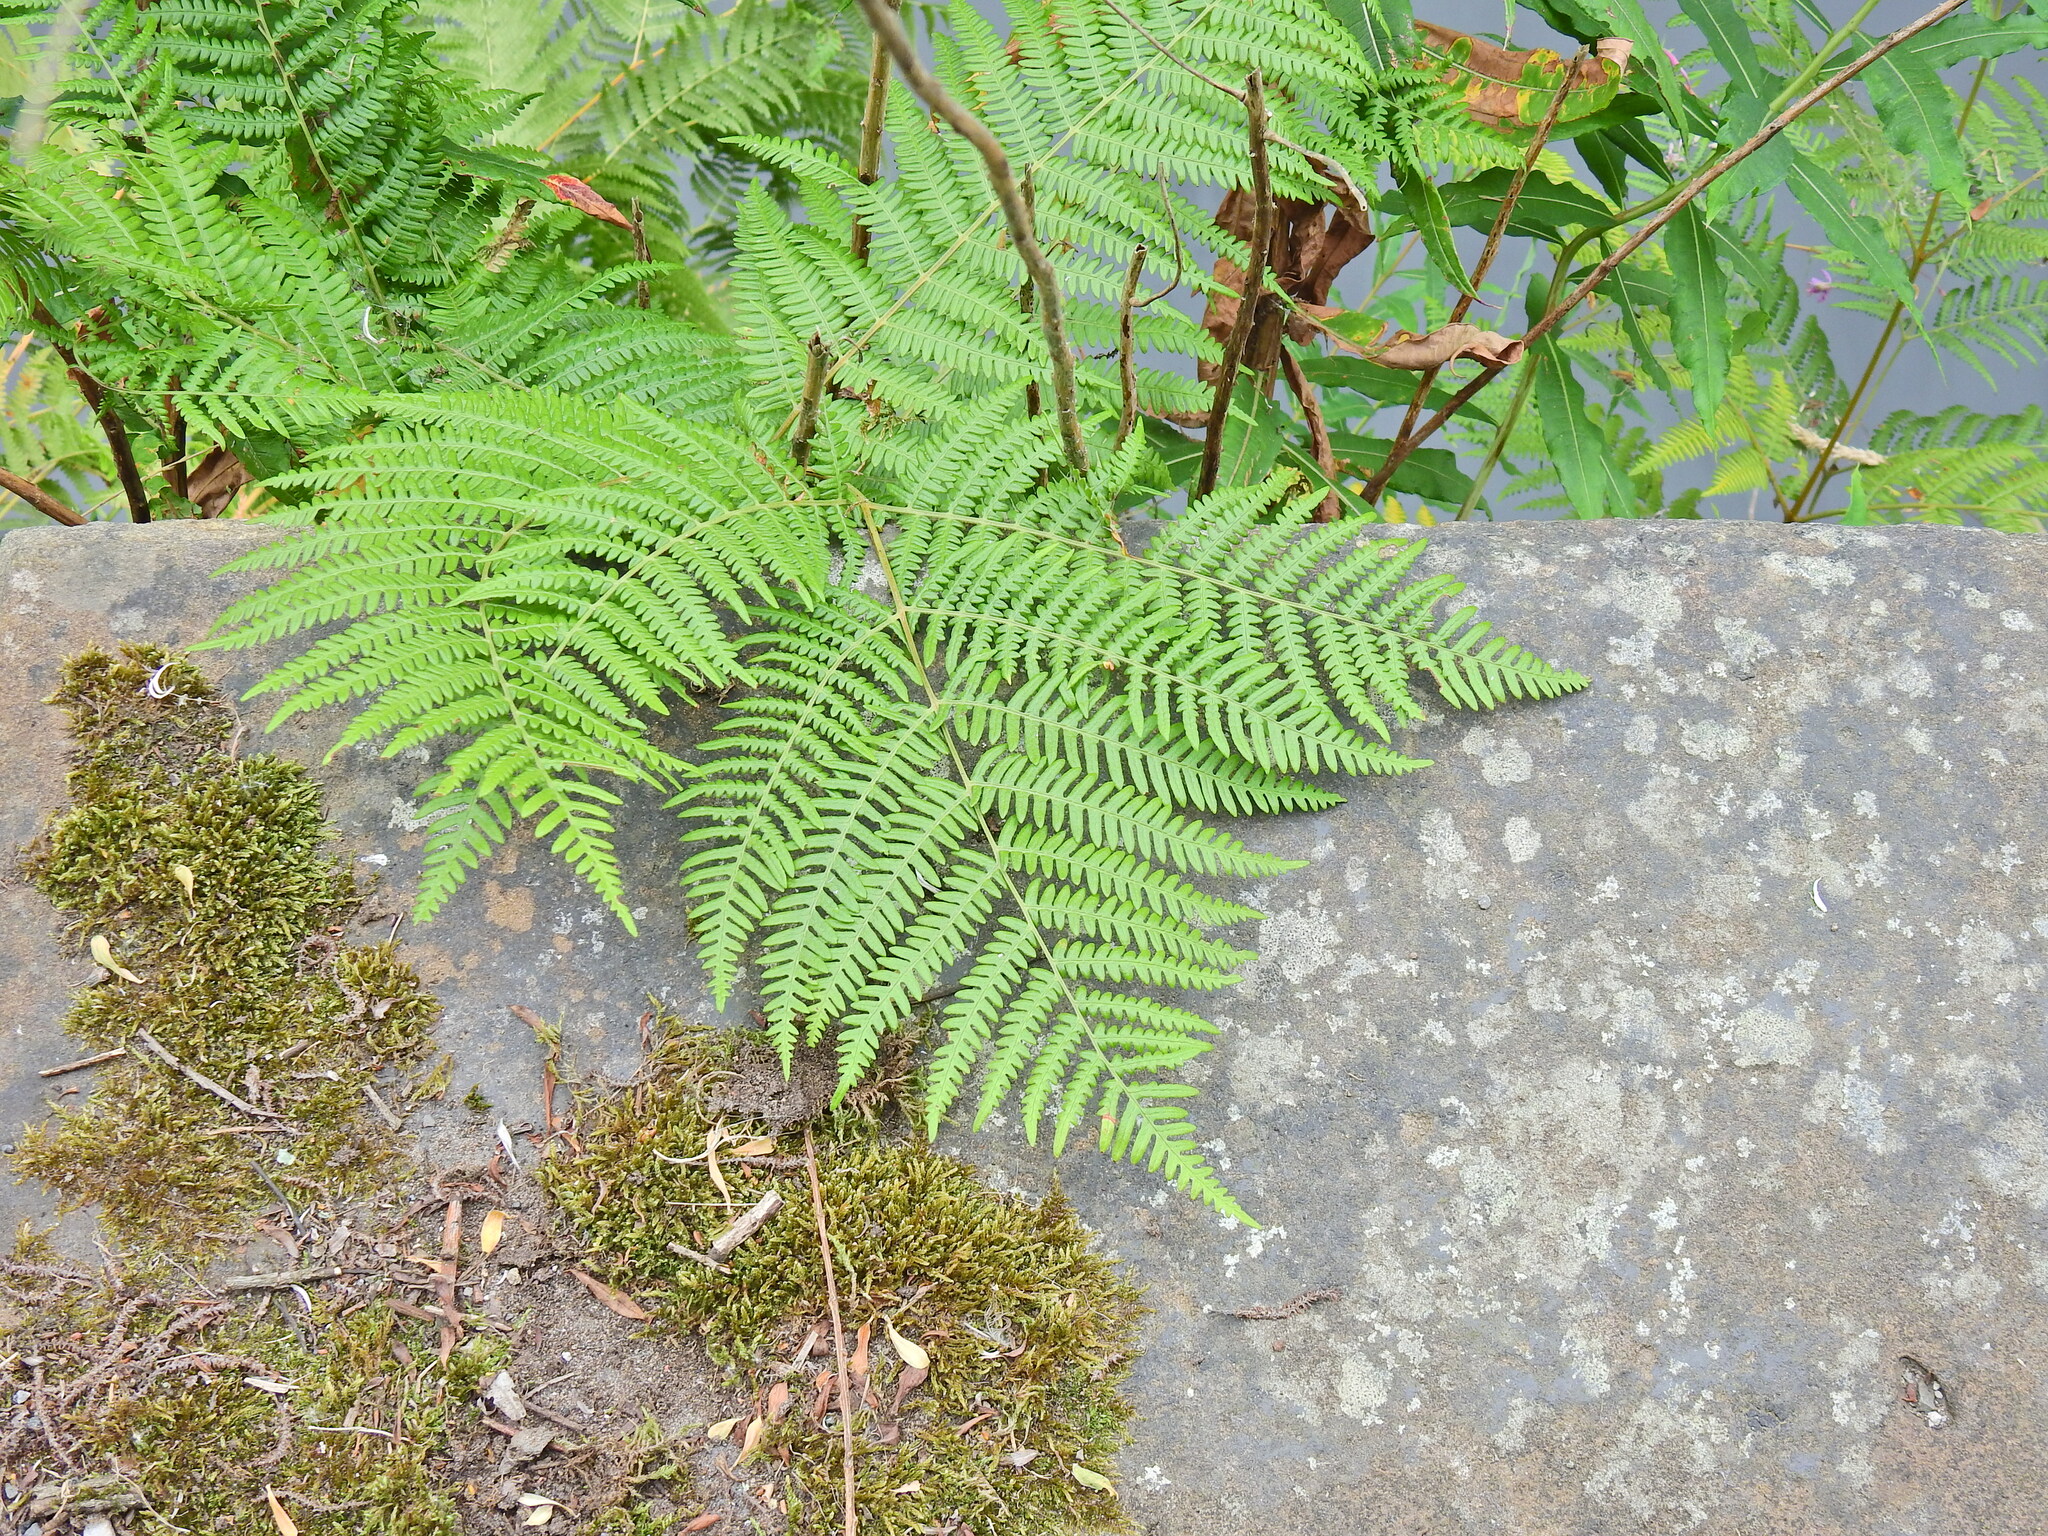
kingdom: Plantae
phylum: Tracheophyta
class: Polypodiopsida
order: Polypodiales
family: Dennstaedtiaceae
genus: Pteridium
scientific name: Pteridium aquilinum
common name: Bracken
